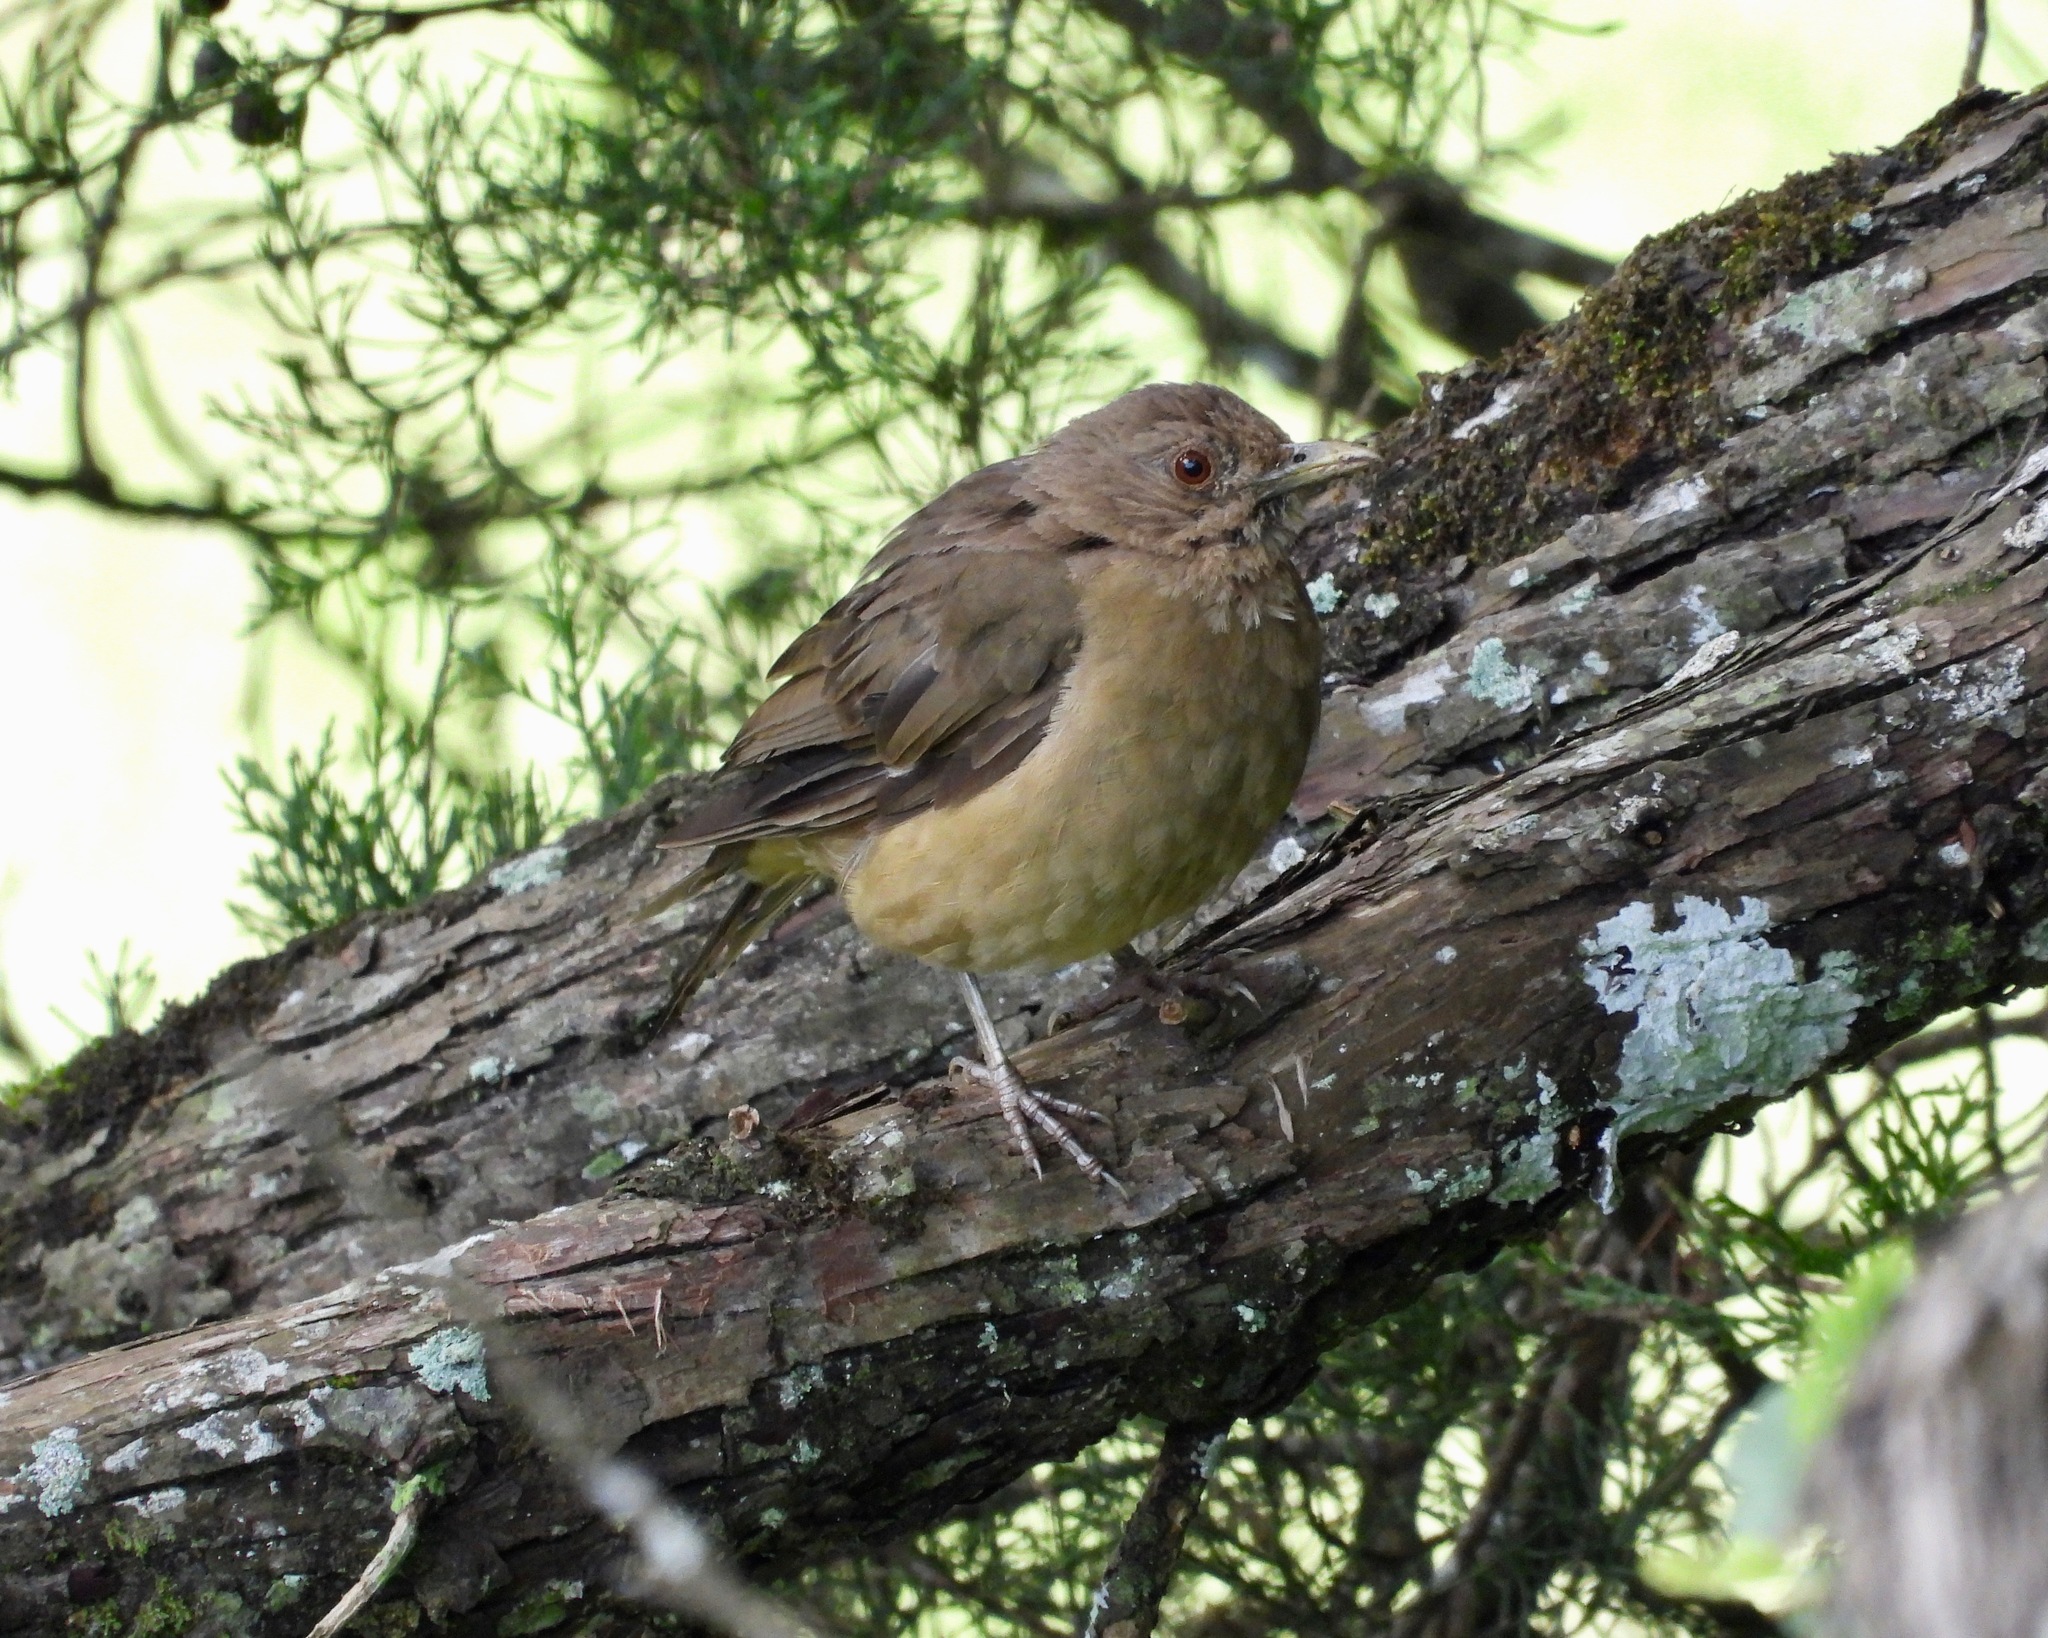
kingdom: Animalia
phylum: Chordata
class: Aves
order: Passeriformes
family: Turdidae
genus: Turdus
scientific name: Turdus grayi
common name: Clay-colored thrush
